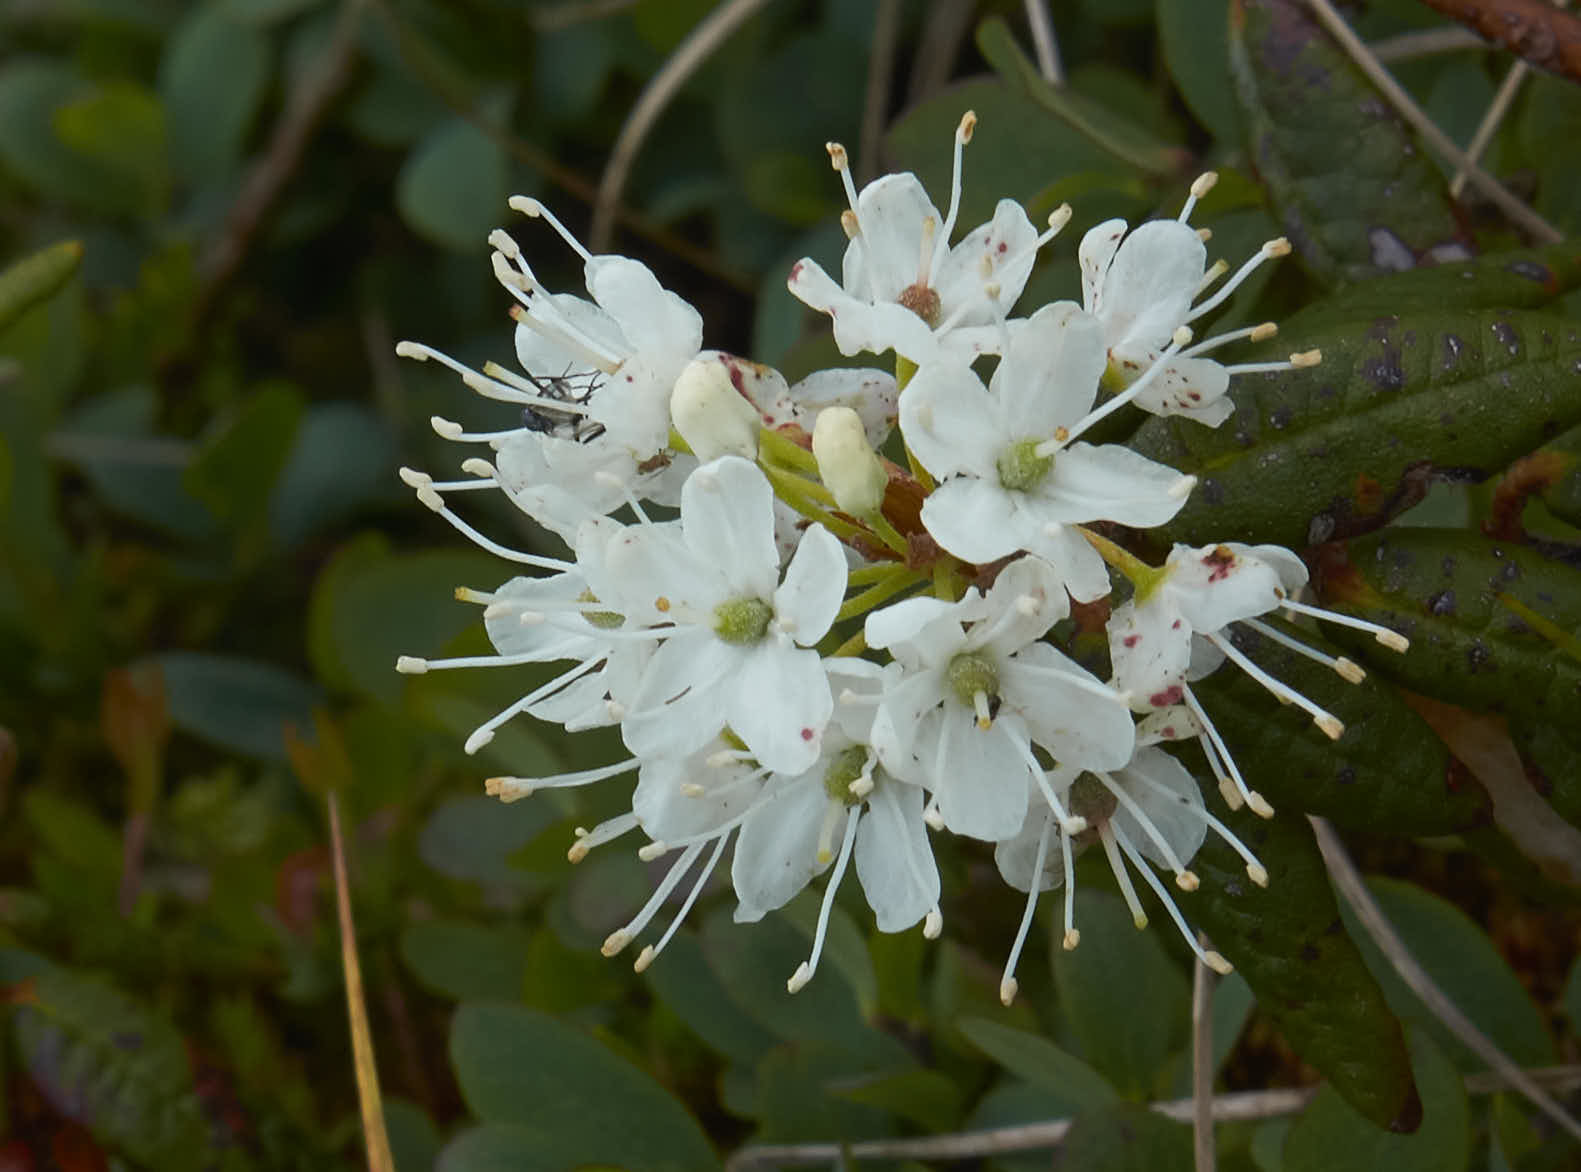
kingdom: Plantae
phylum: Tracheophyta
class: Magnoliopsida
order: Ericales
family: Ericaceae
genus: Rhododendron
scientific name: Rhododendron groenlandicum
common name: Bog labrador tea
